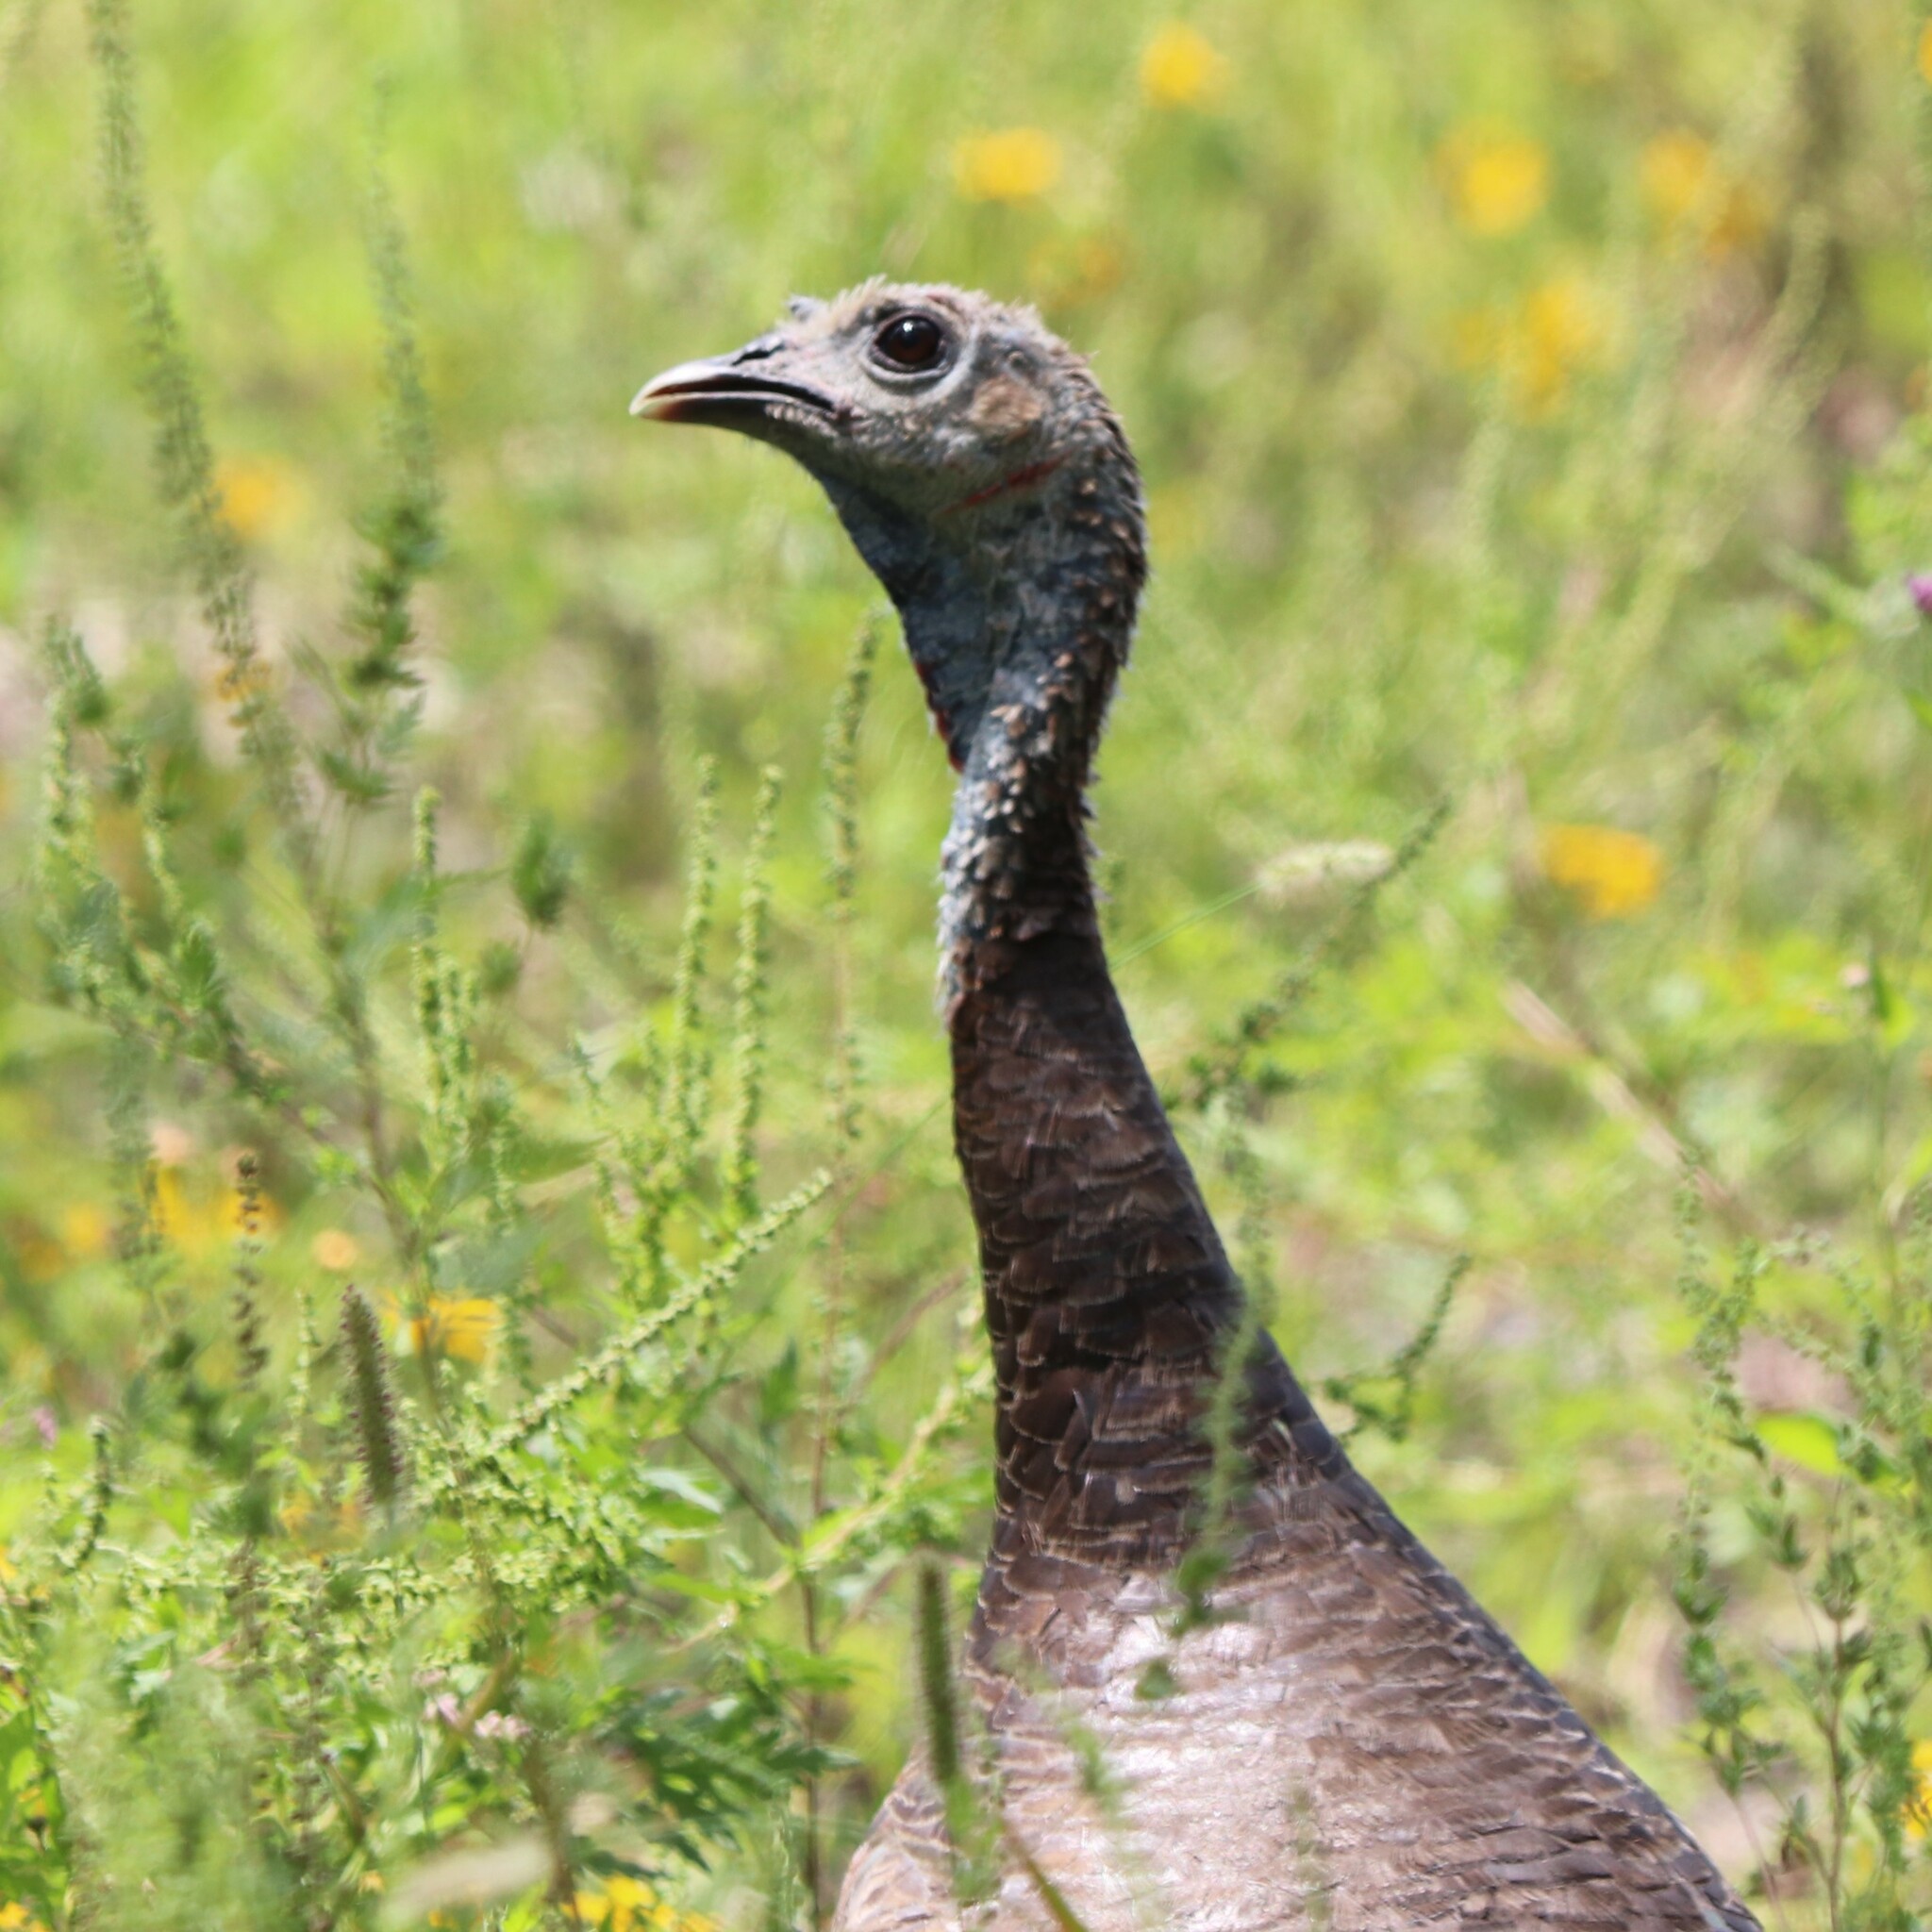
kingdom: Animalia
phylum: Chordata
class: Aves
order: Galliformes
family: Phasianidae
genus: Meleagris
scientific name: Meleagris gallopavo
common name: Wild turkey
